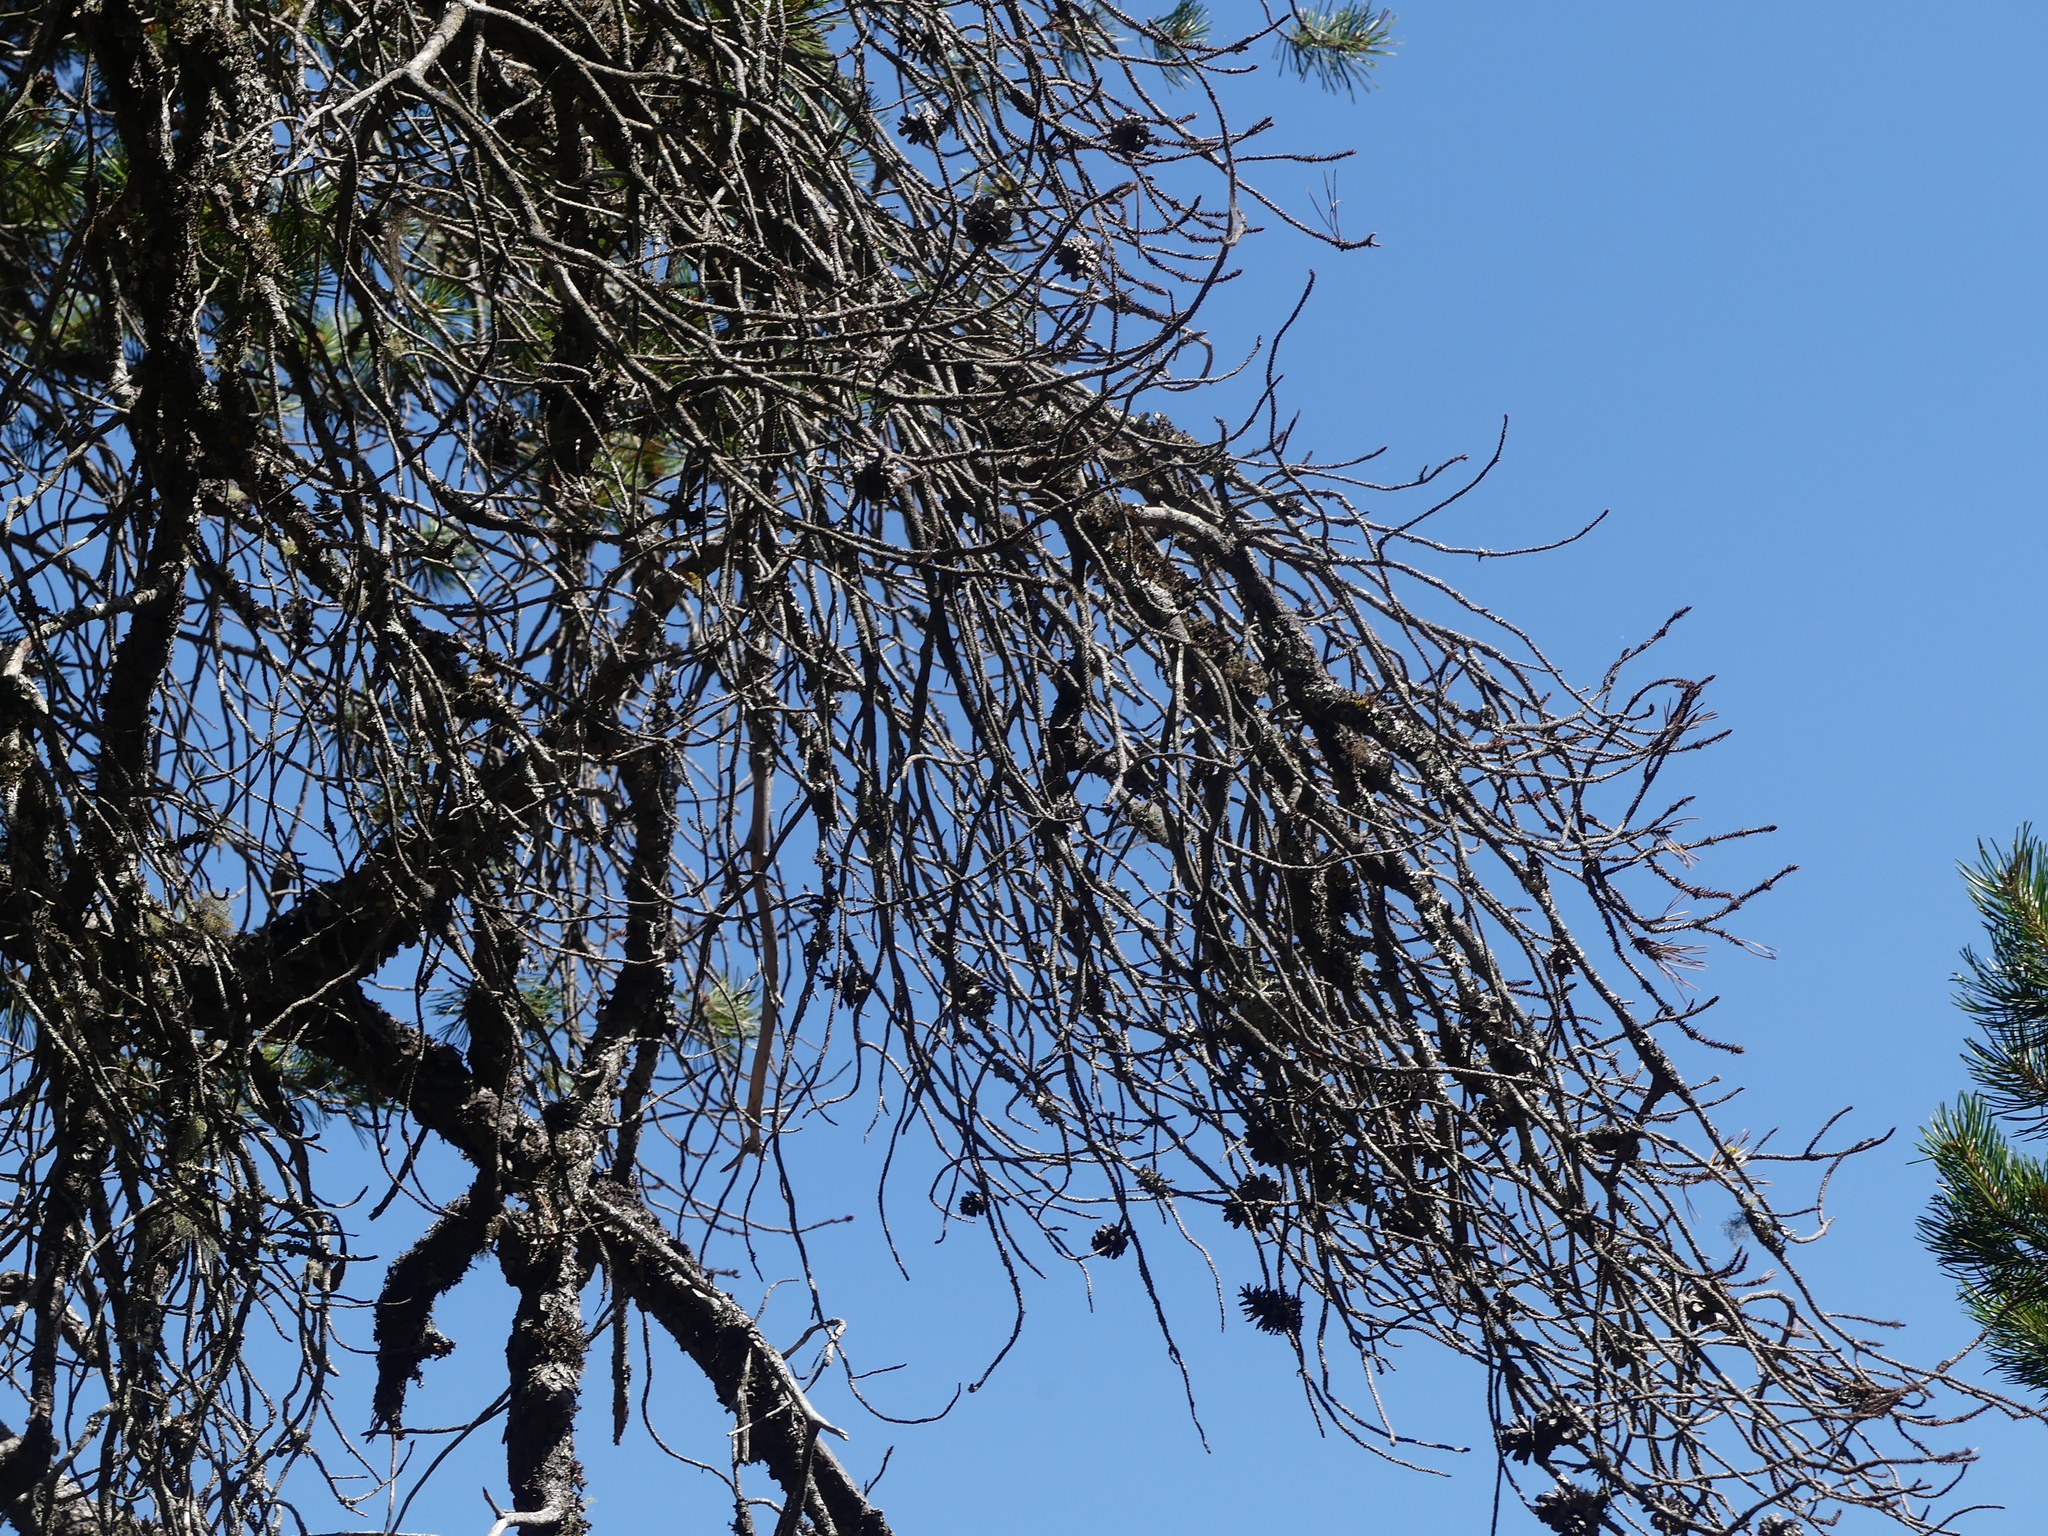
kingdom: Plantae
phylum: Tracheophyta
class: Pinopsida
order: Pinales
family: Pinaceae
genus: Pinus
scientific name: Pinus contorta
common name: Lodgepole pine
